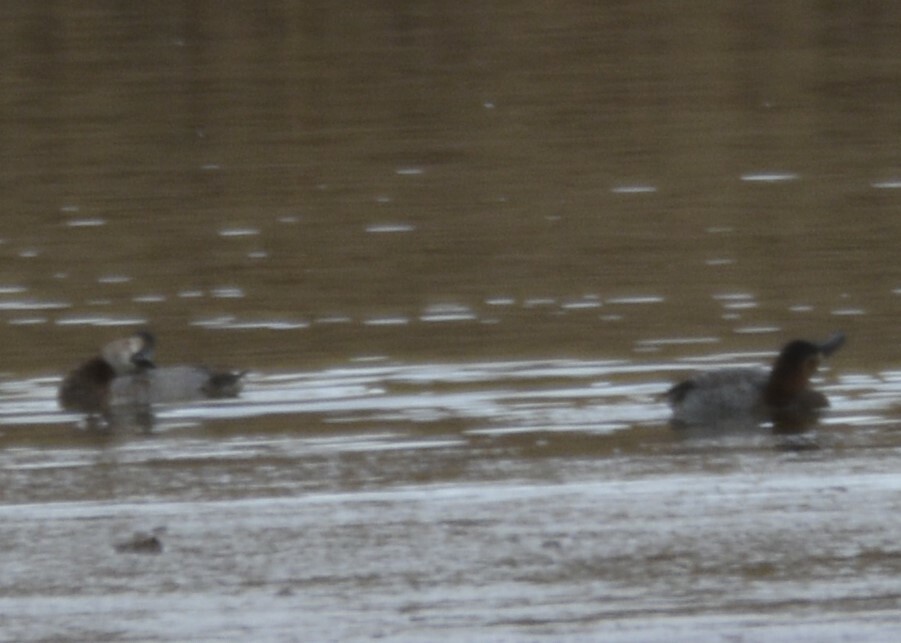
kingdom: Animalia
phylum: Chordata
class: Aves
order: Anseriformes
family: Anatidae
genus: Aythya
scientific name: Aythya ferina
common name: Common pochard
